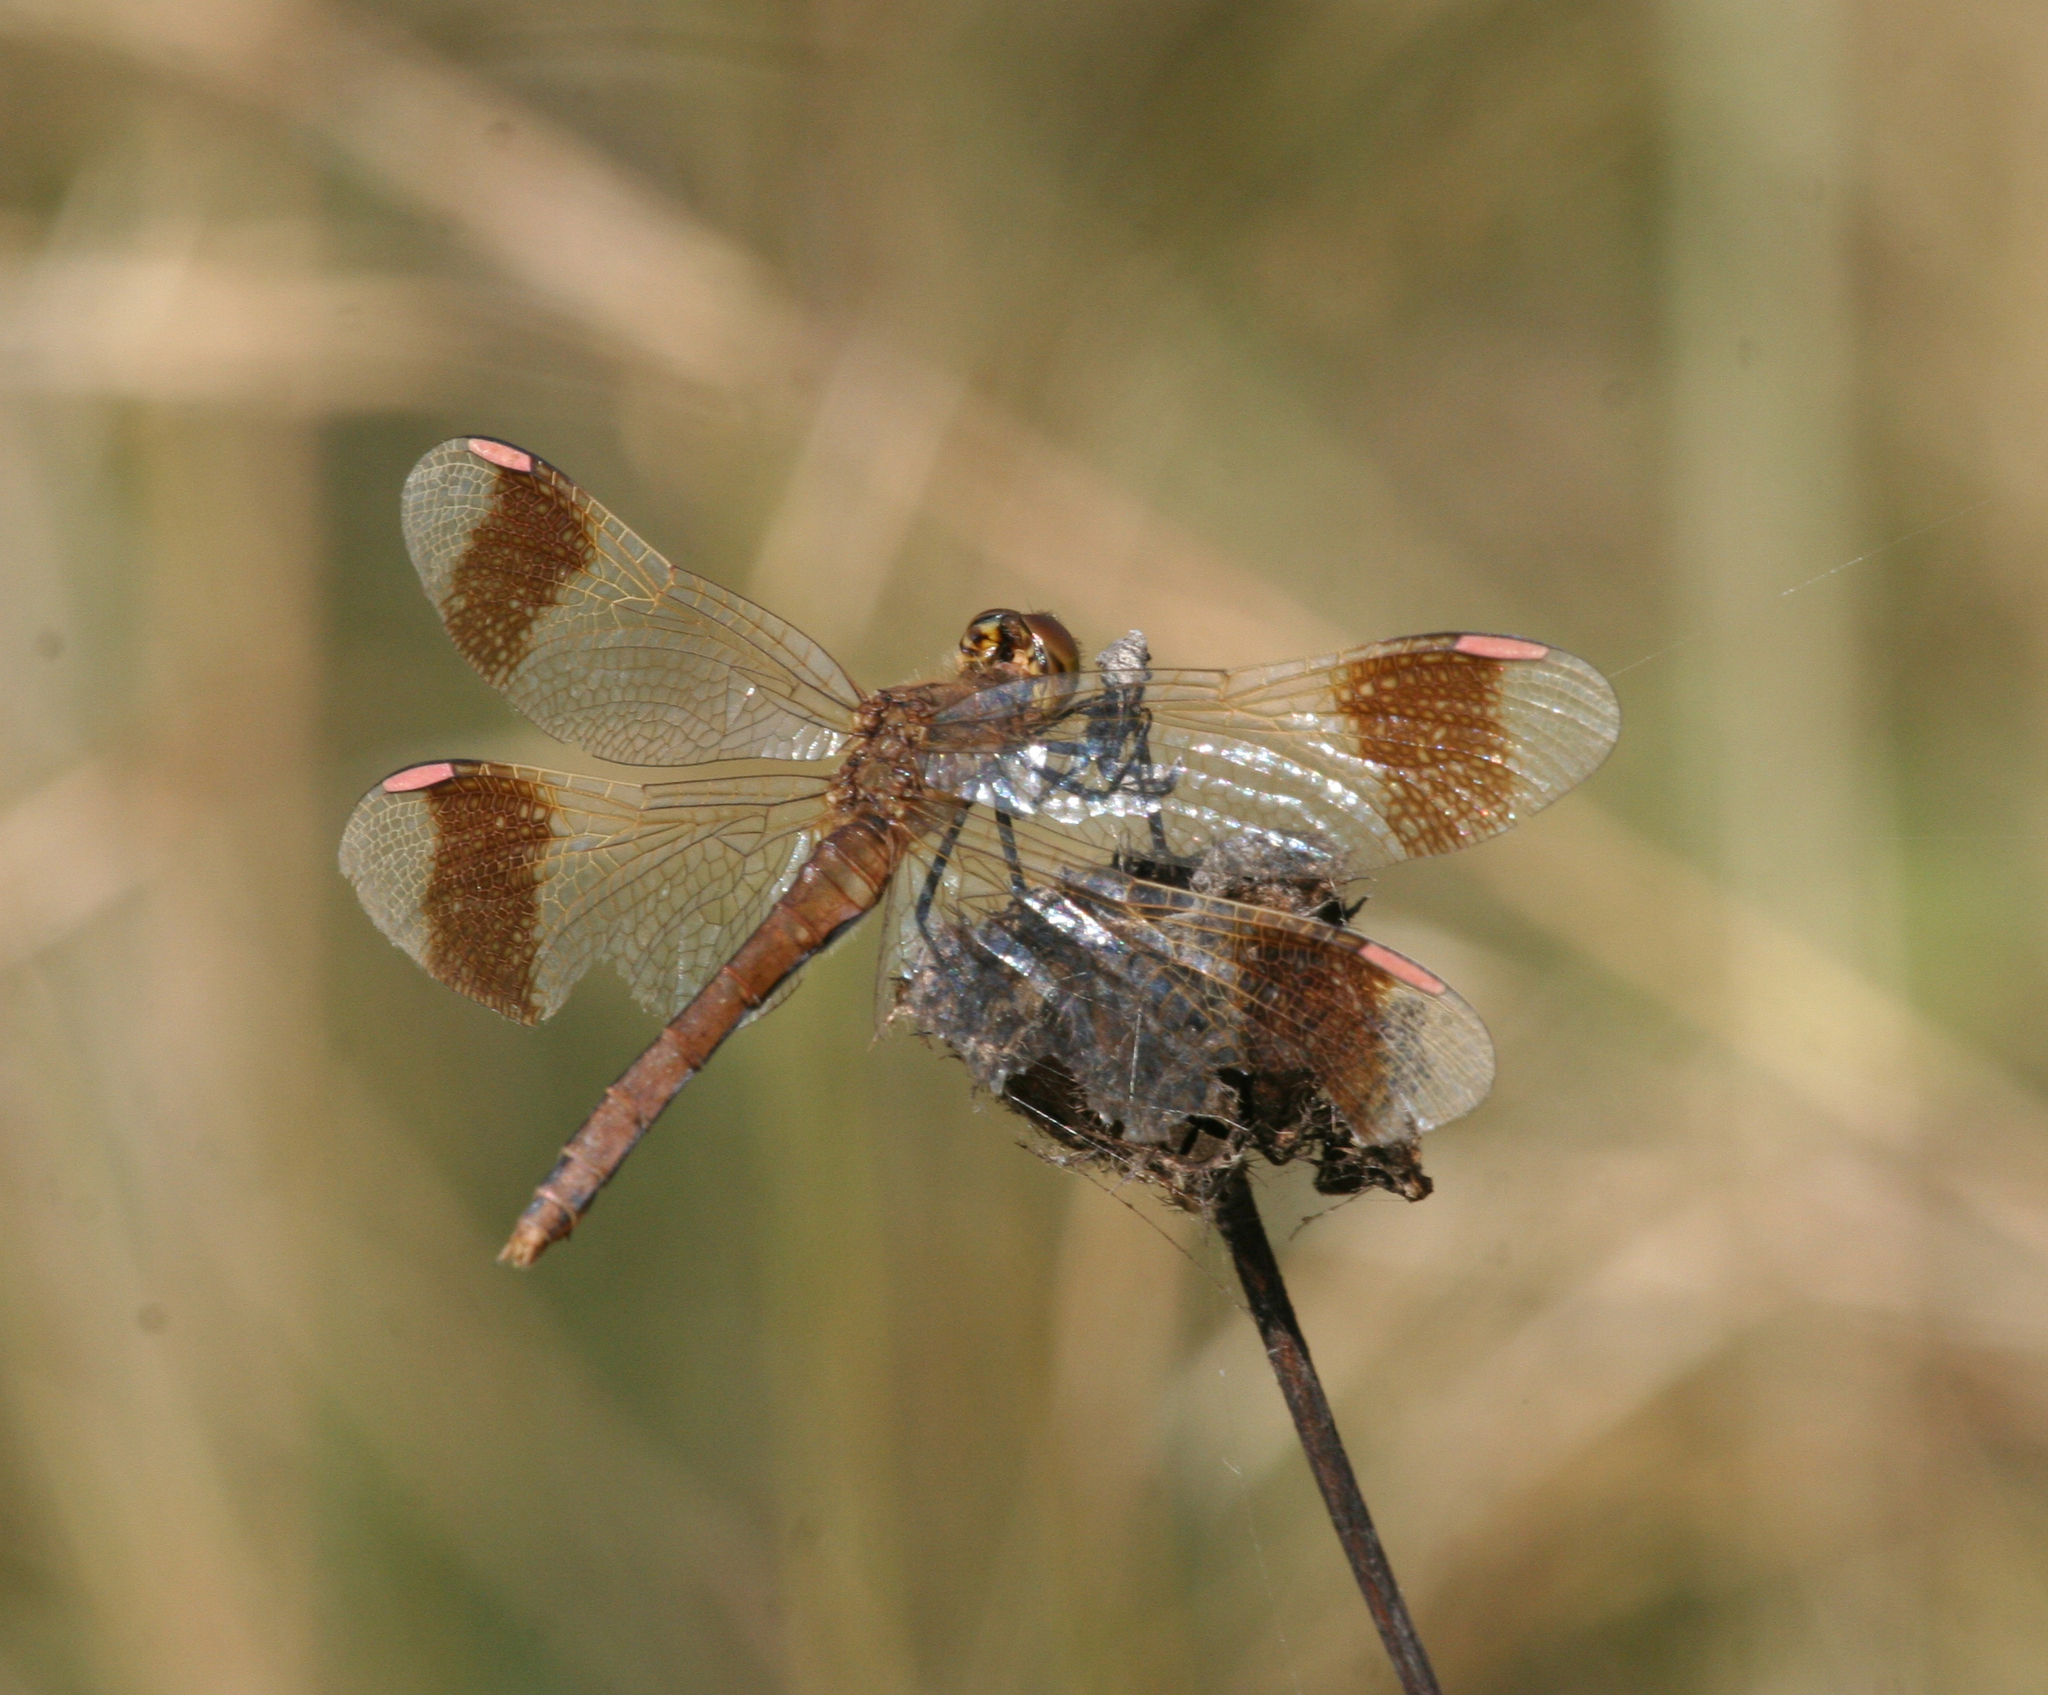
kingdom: Animalia
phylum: Arthropoda
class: Insecta
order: Odonata
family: Libellulidae
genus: Sympetrum
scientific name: Sympetrum pedemontanum
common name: Banded darter
